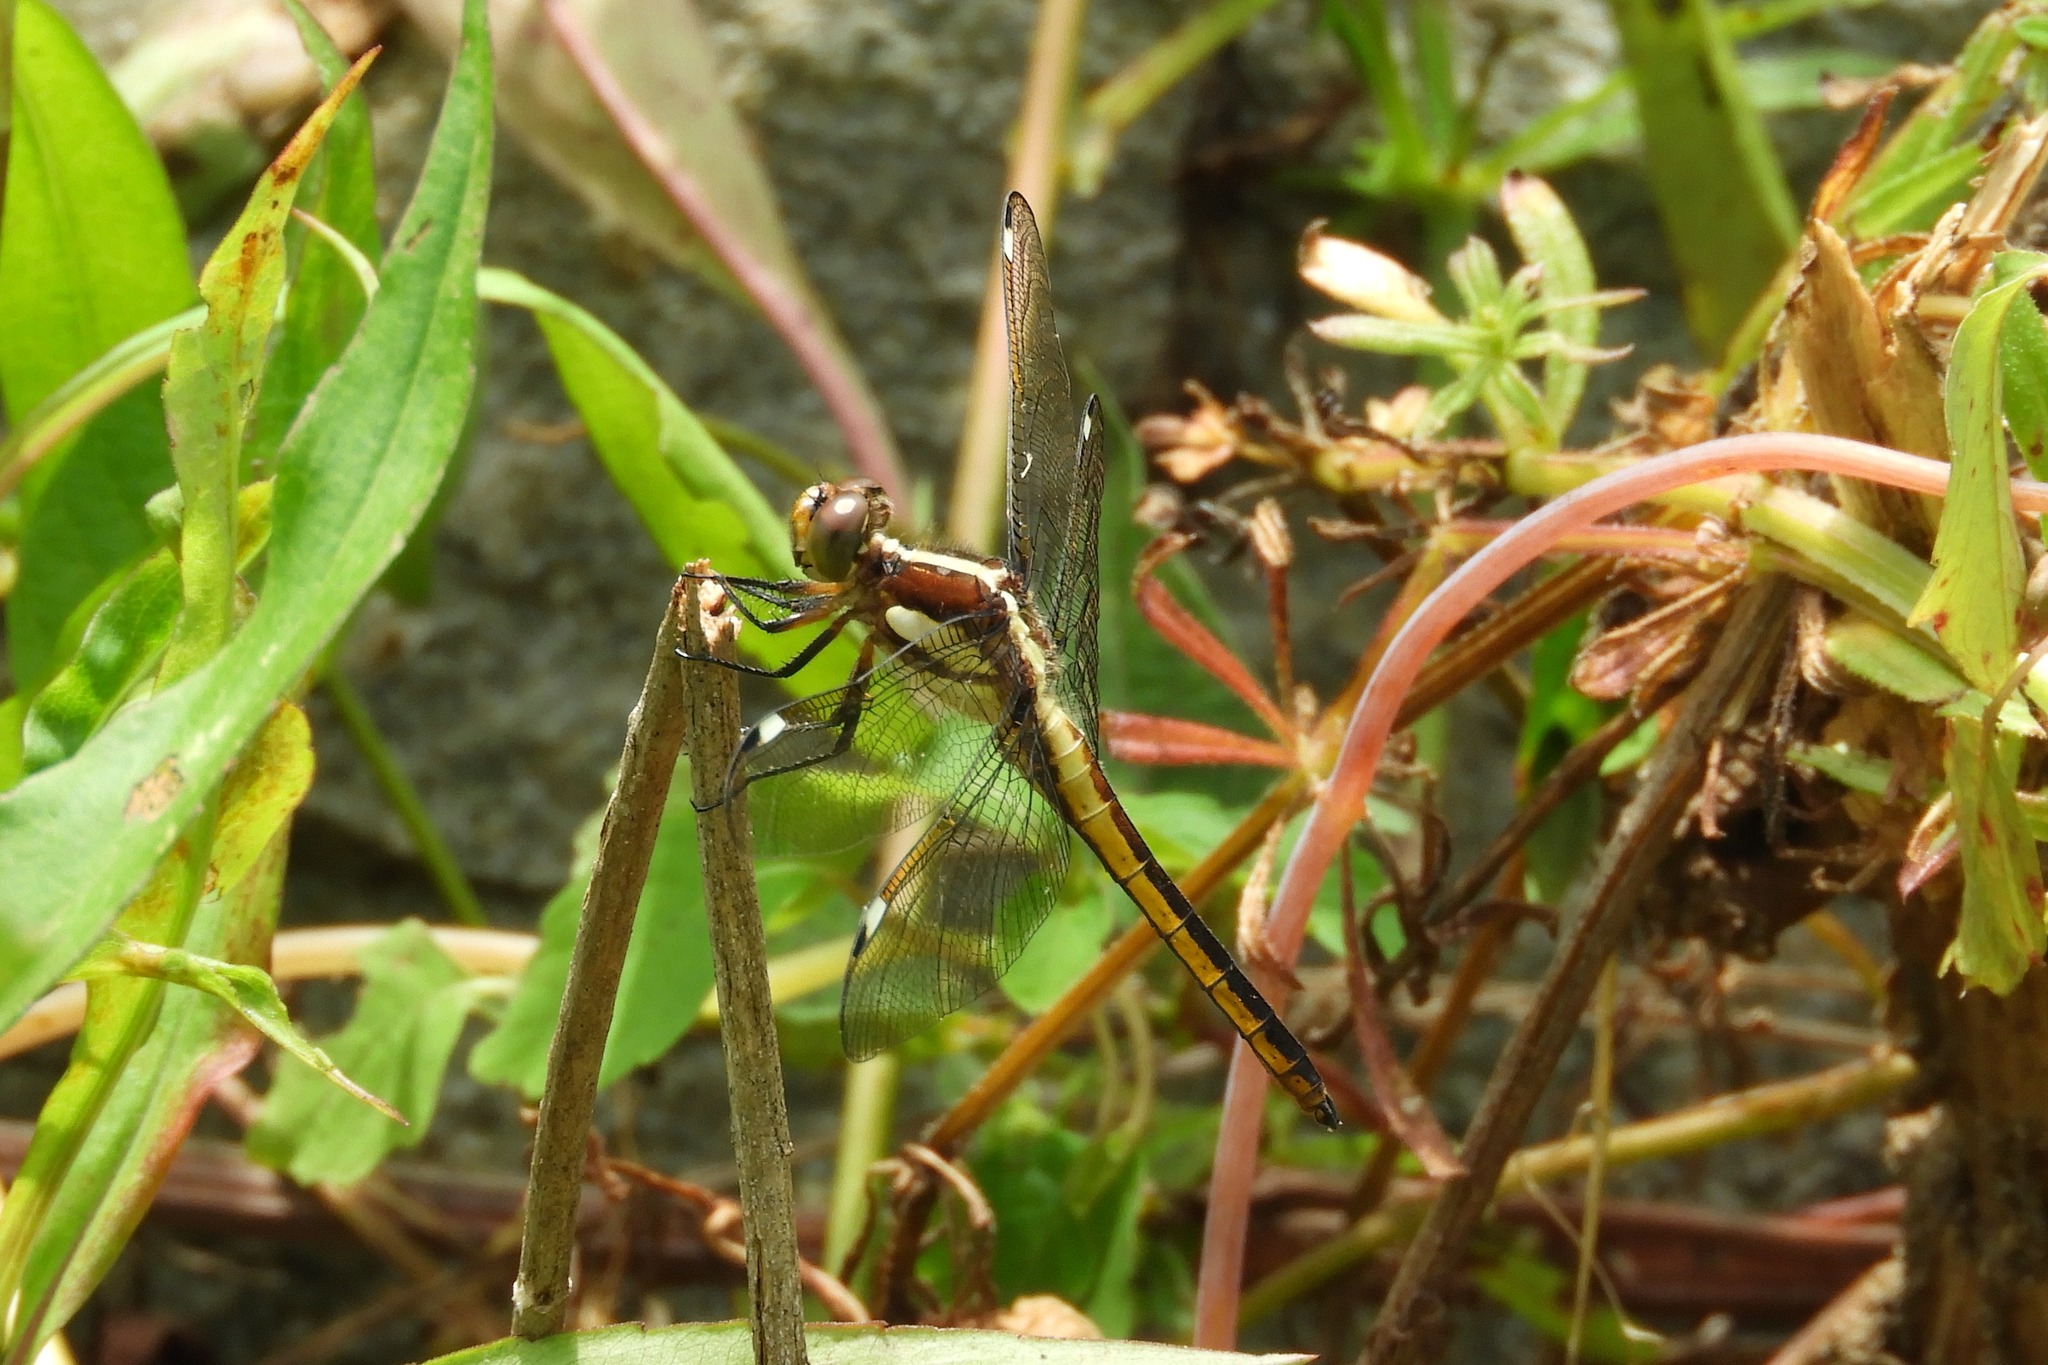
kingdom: Animalia
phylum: Arthropoda
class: Insecta
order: Odonata
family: Libellulidae
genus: Libellula
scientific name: Libellula cyanea
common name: Spangled skimmer
